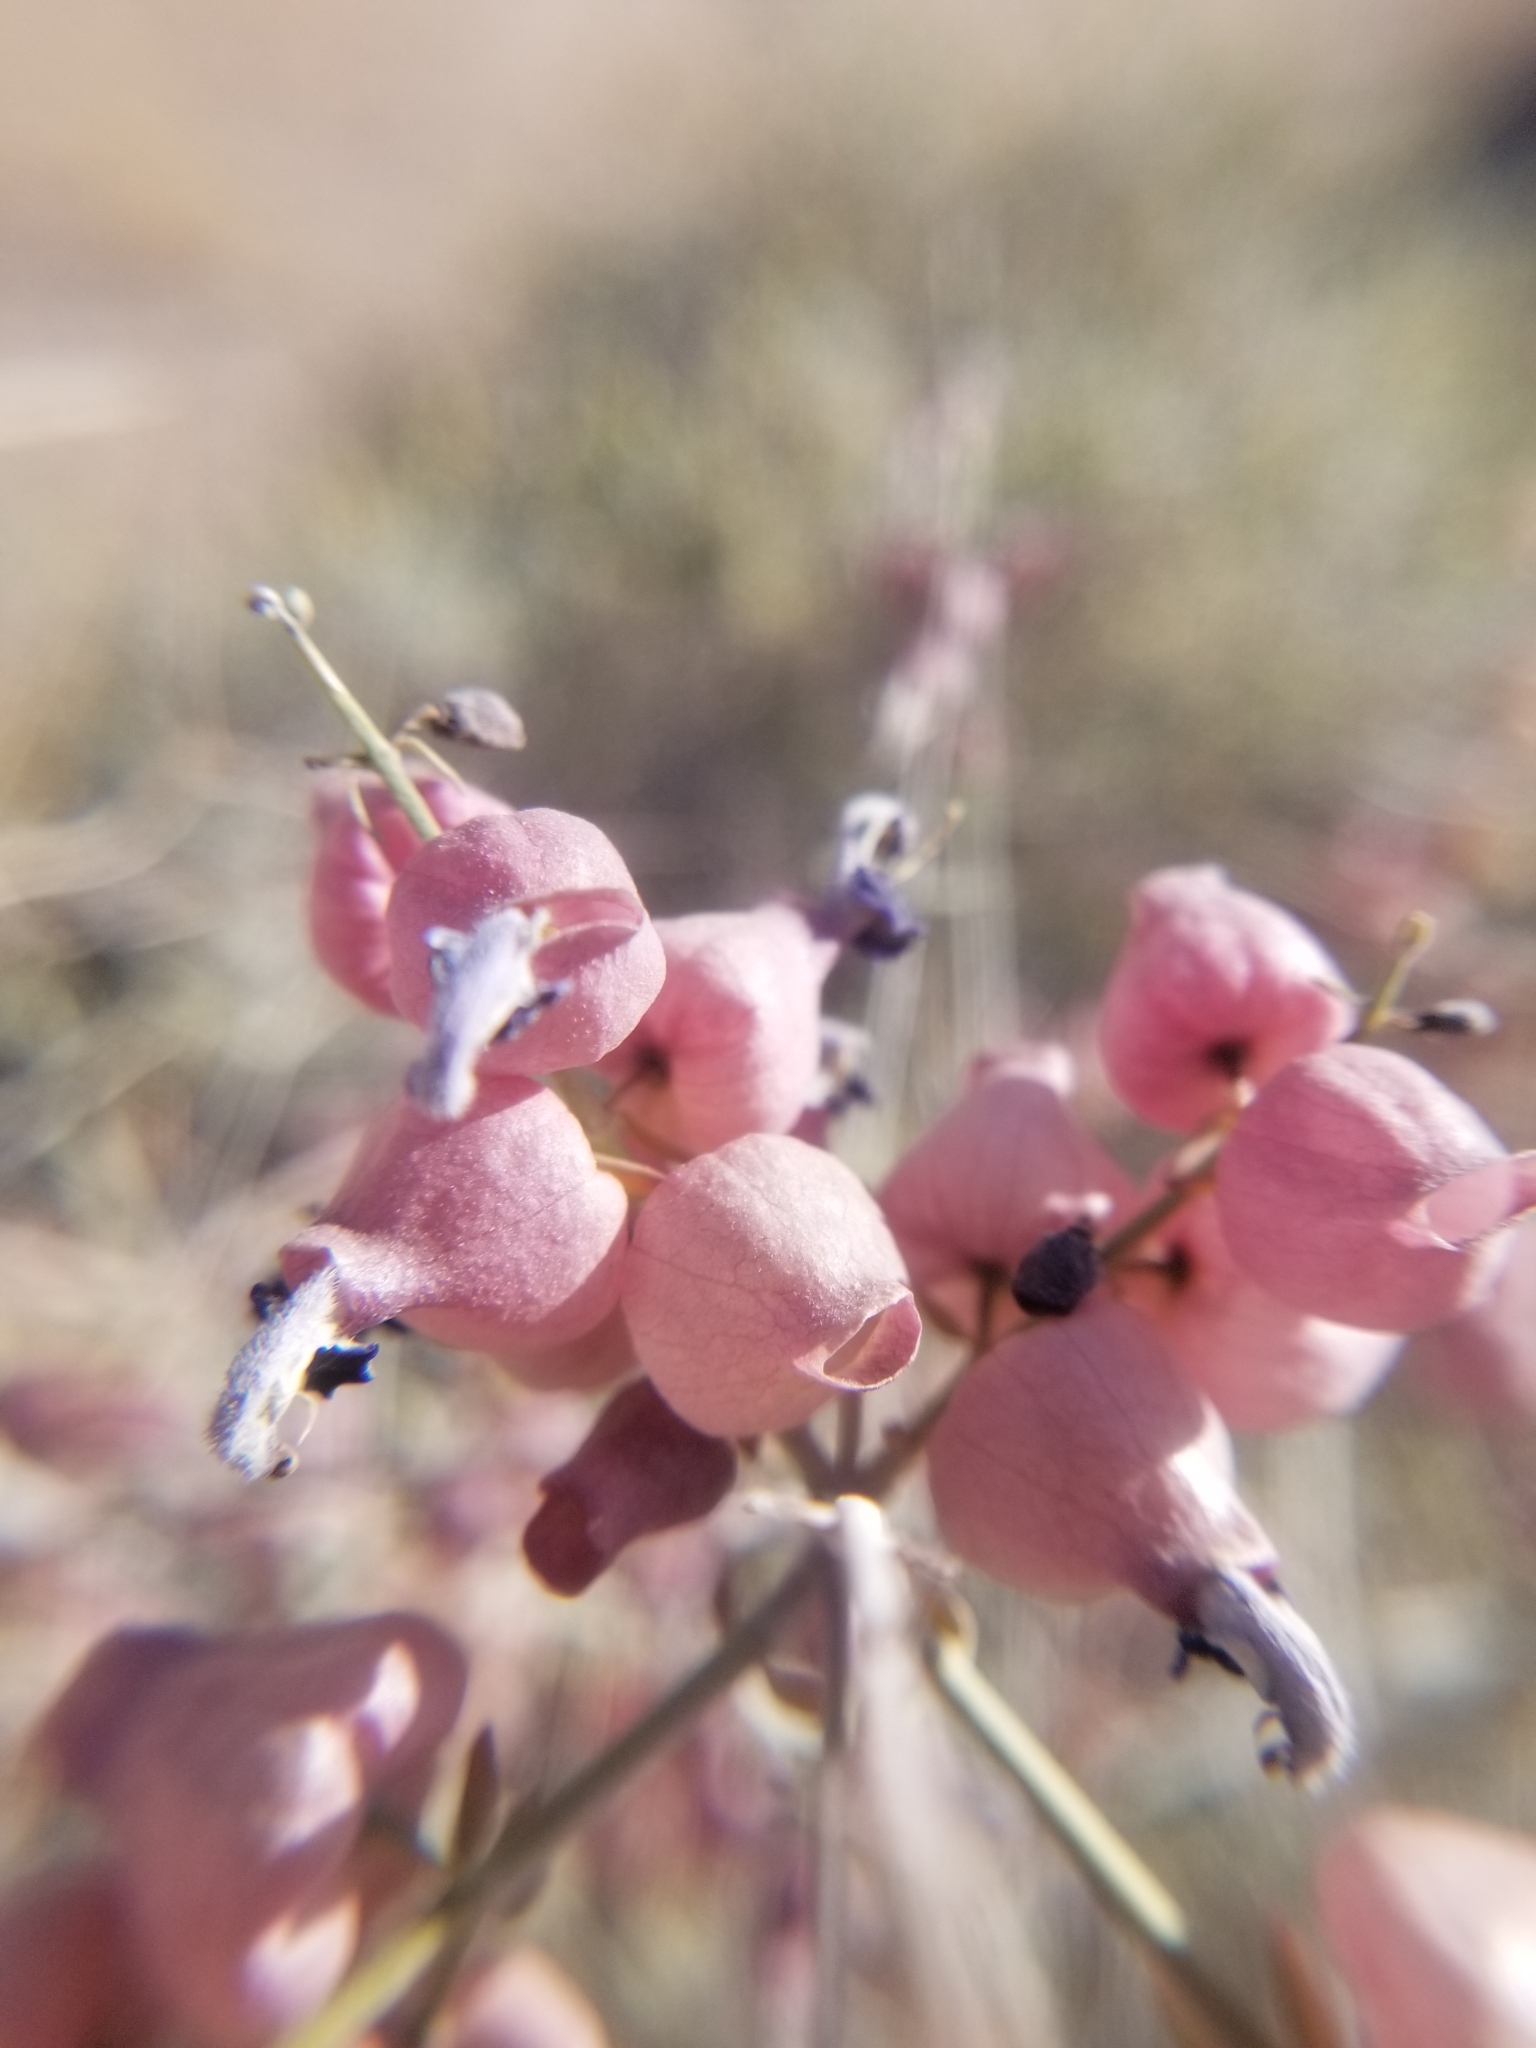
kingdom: Plantae
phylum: Tracheophyta
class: Magnoliopsida
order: Lamiales
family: Lamiaceae
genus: Scutellaria
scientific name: Scutellaria mexicana
